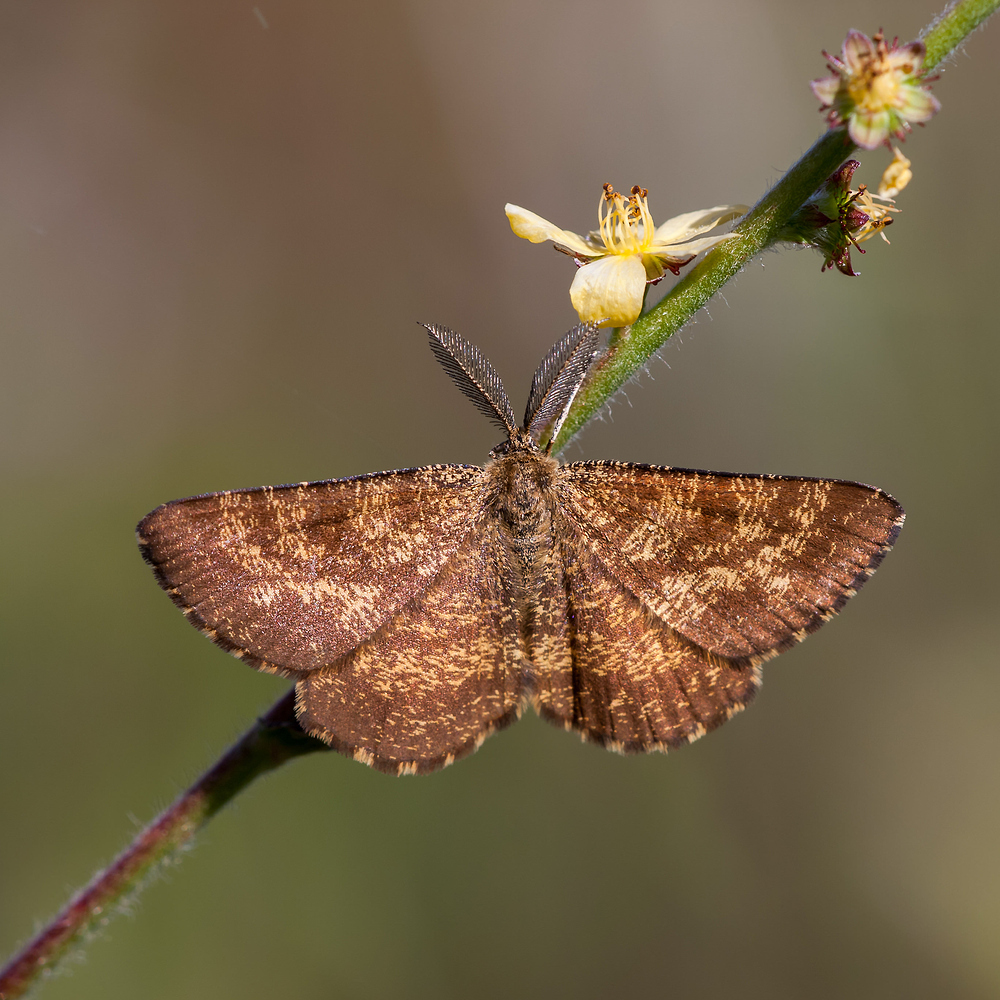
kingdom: Animalia
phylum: Arthropoda
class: Insecta
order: Lepidoptera
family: Geometridae
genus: Ematurga
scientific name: Ematurga atomaria
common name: Common heath
